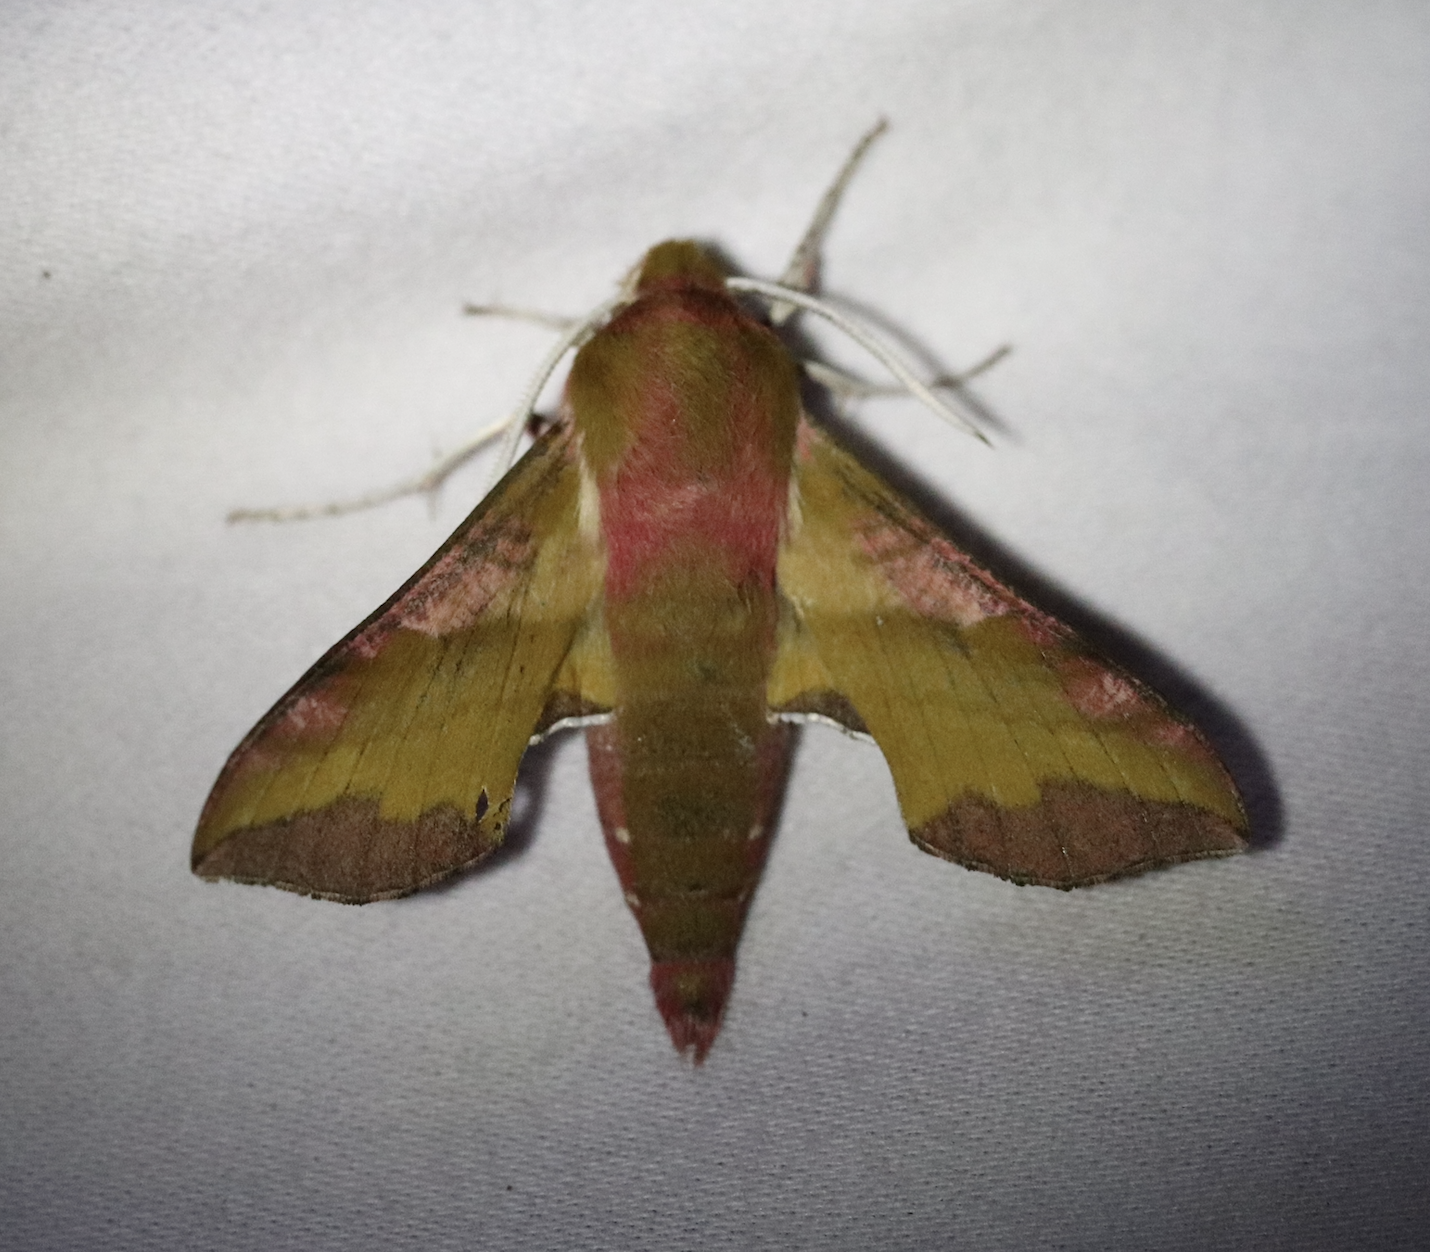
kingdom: Animalia
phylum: Arthropoda
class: Insecta
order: Lepidoptera
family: Sphingidae
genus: Deilephila
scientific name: Deilephila porcellus
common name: Small elephant hawk-moth
